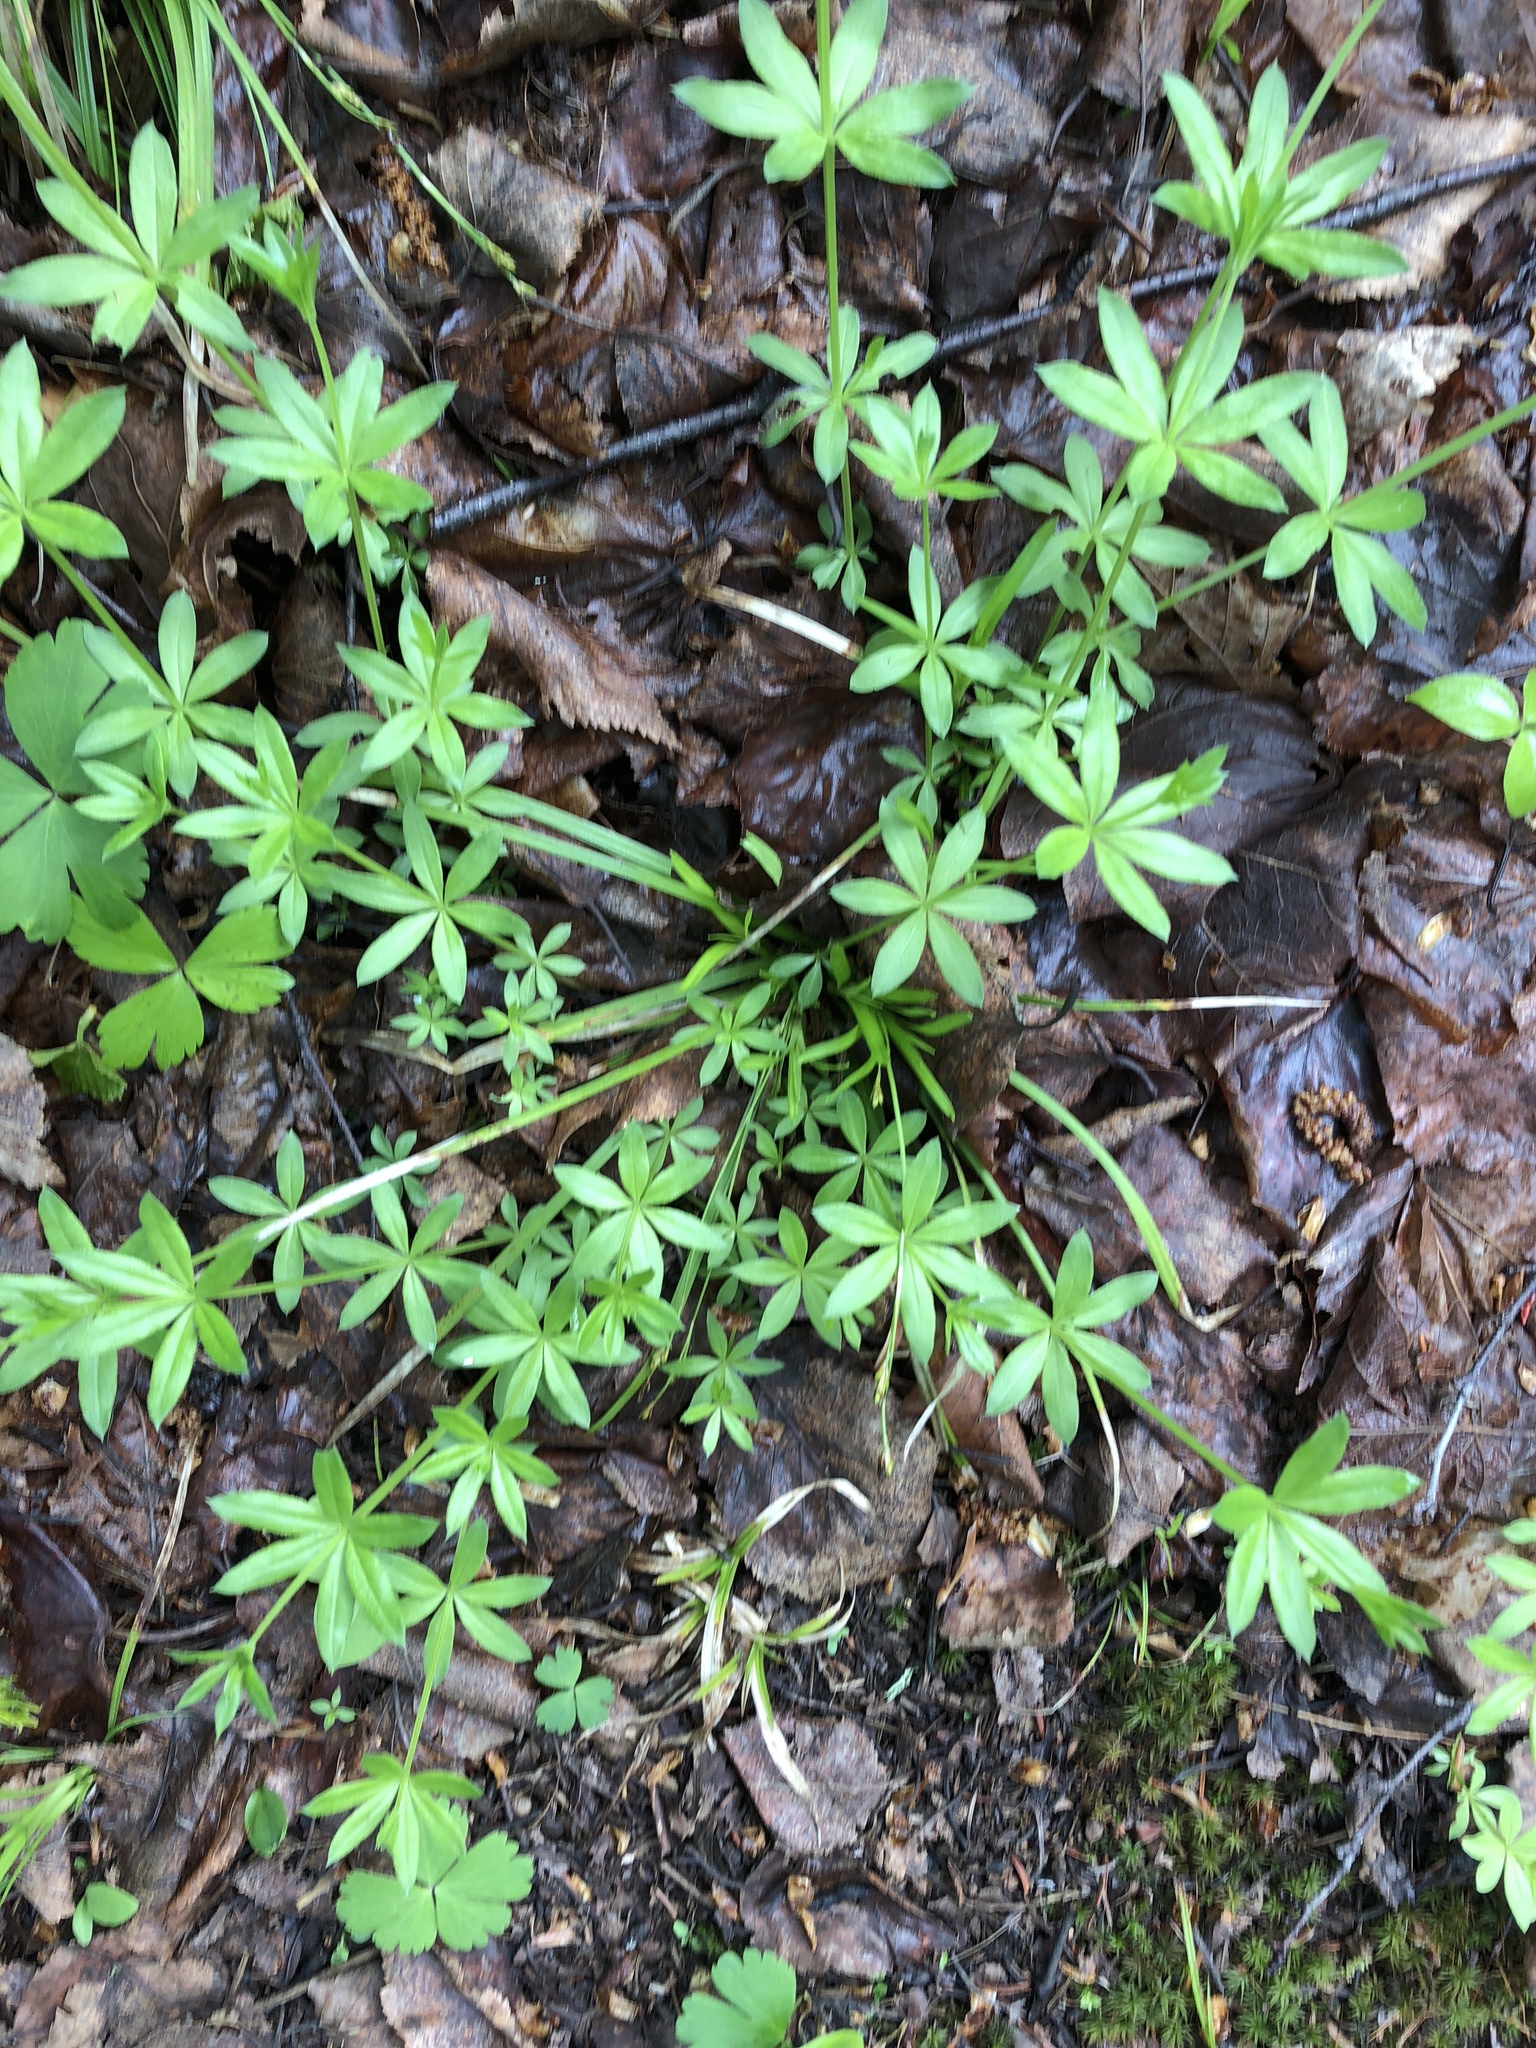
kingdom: Plantae
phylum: Tracheophyta
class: Magnoliopsida
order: Gentianales
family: Rubiaceae
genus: Galium
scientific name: Galium triflorum
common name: Fragrant bedstraw
